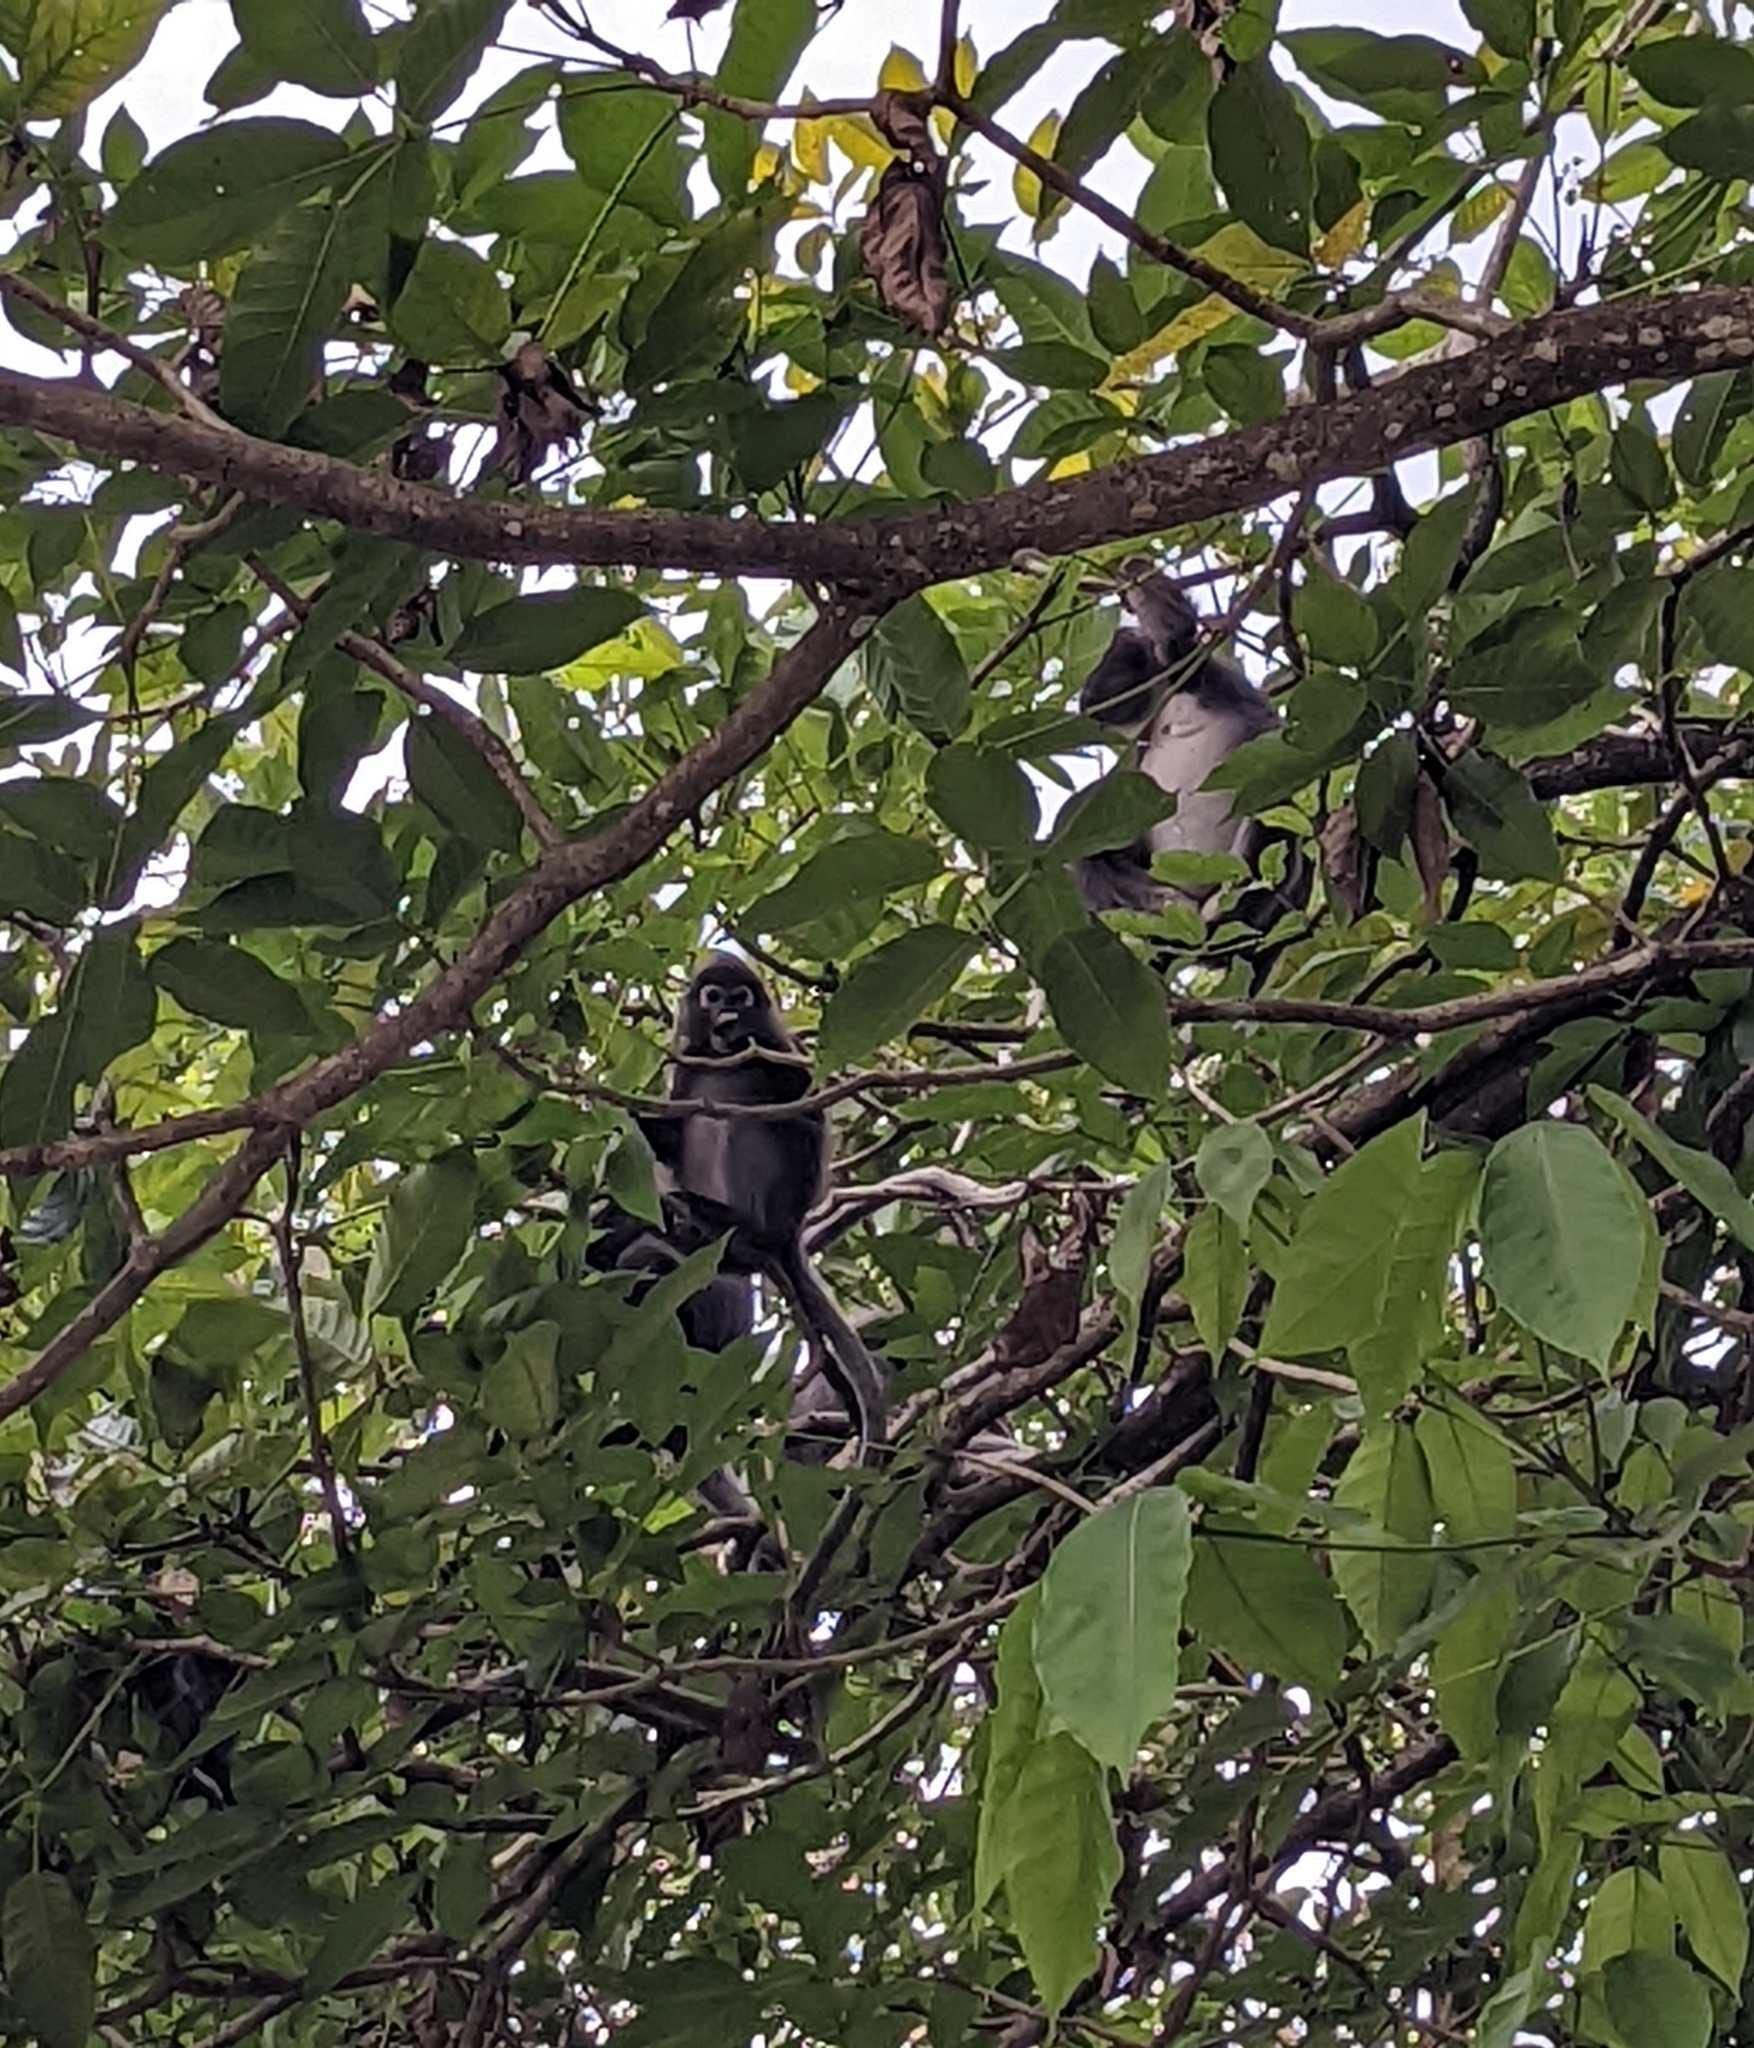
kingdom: Animalia
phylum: Chordata
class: Mammalia
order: Primates
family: Cercopithecidae
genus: Trachypithecus
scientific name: Trachypithecus obscurus
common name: Dusky leaf-monkey
